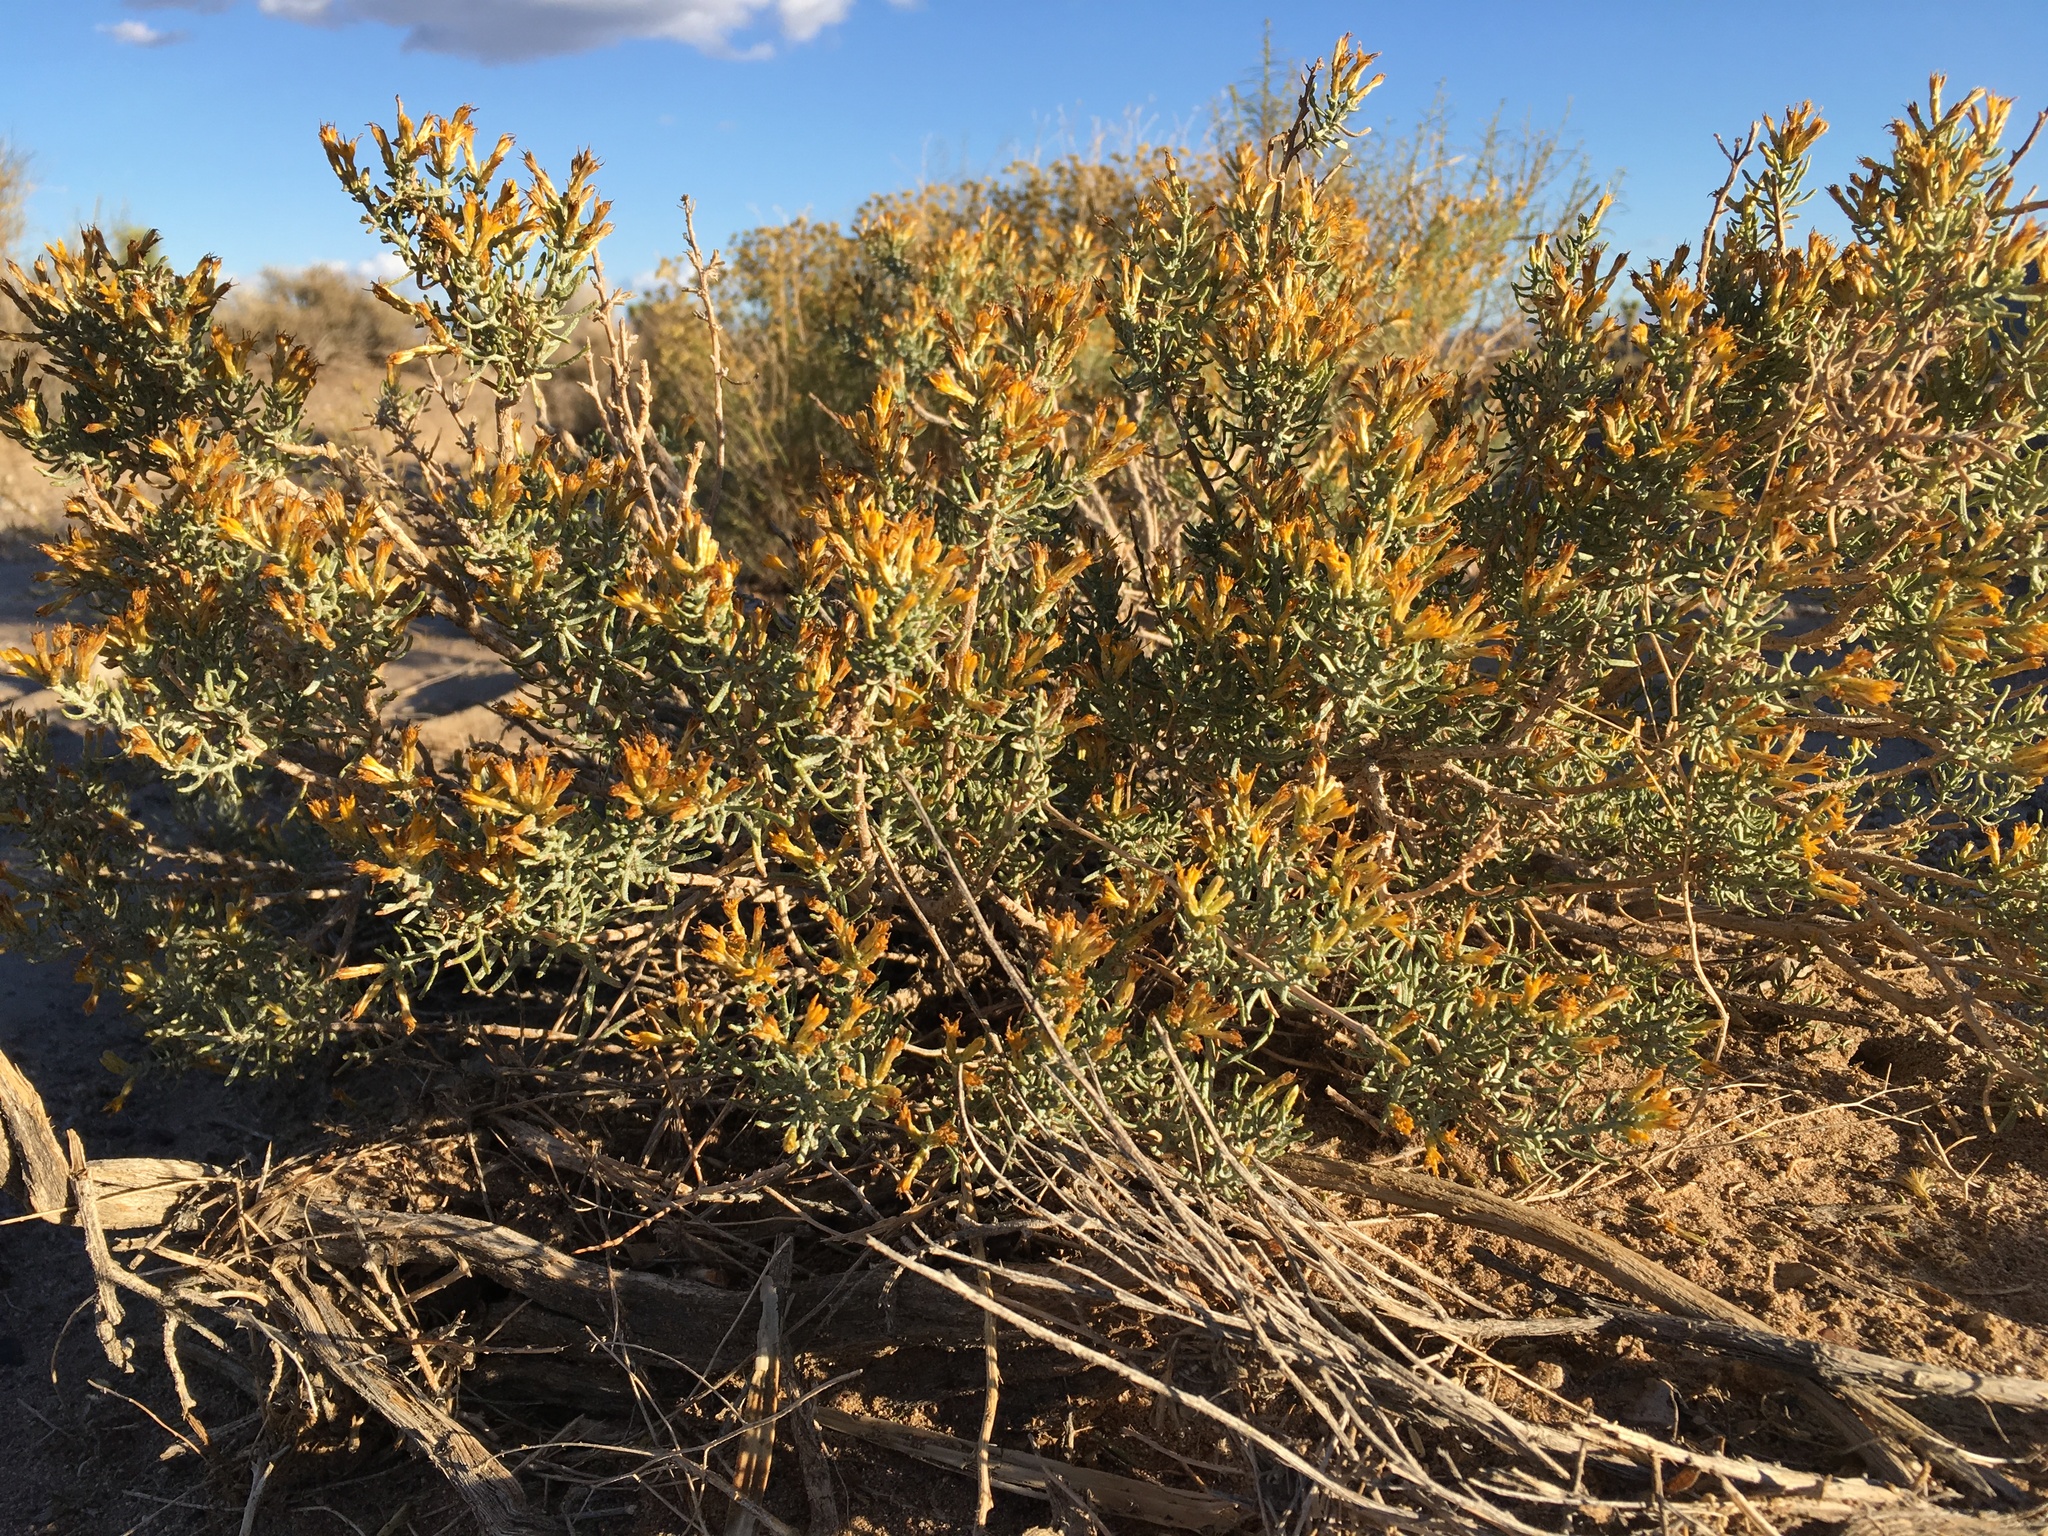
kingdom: Plantae
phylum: Tracheophyta
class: Magnoliopsida
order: Asterales
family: Asteraceae
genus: Ericameria
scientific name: Ericameria teretifolia
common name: Round-leaf rabbitbrush
